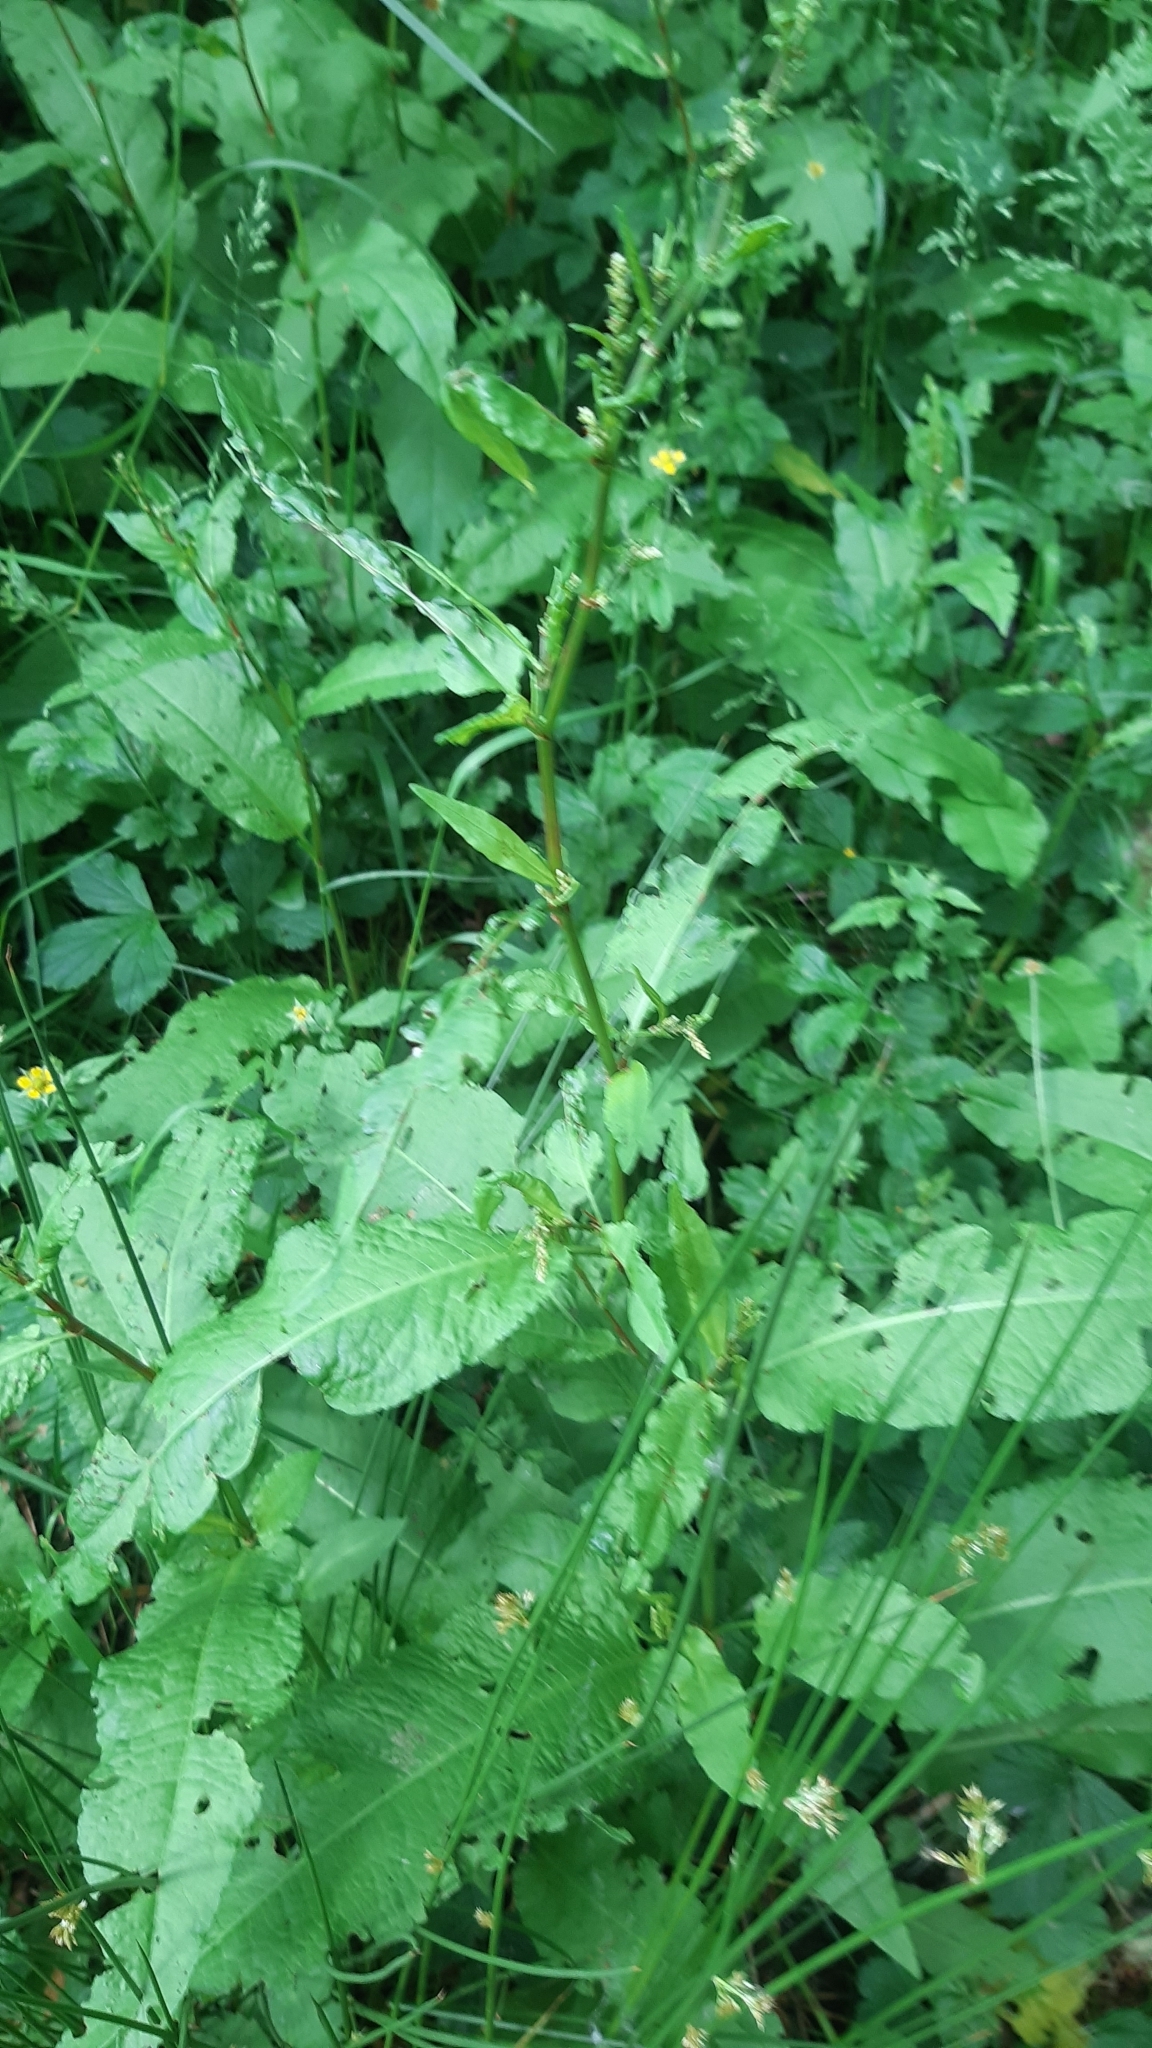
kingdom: Plantae
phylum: Tracheophyta
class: Magnoliopsida
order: Caryophyllales
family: Polygonaceae
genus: Rumex
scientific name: Rumex obtusifolius
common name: Bitter dock
